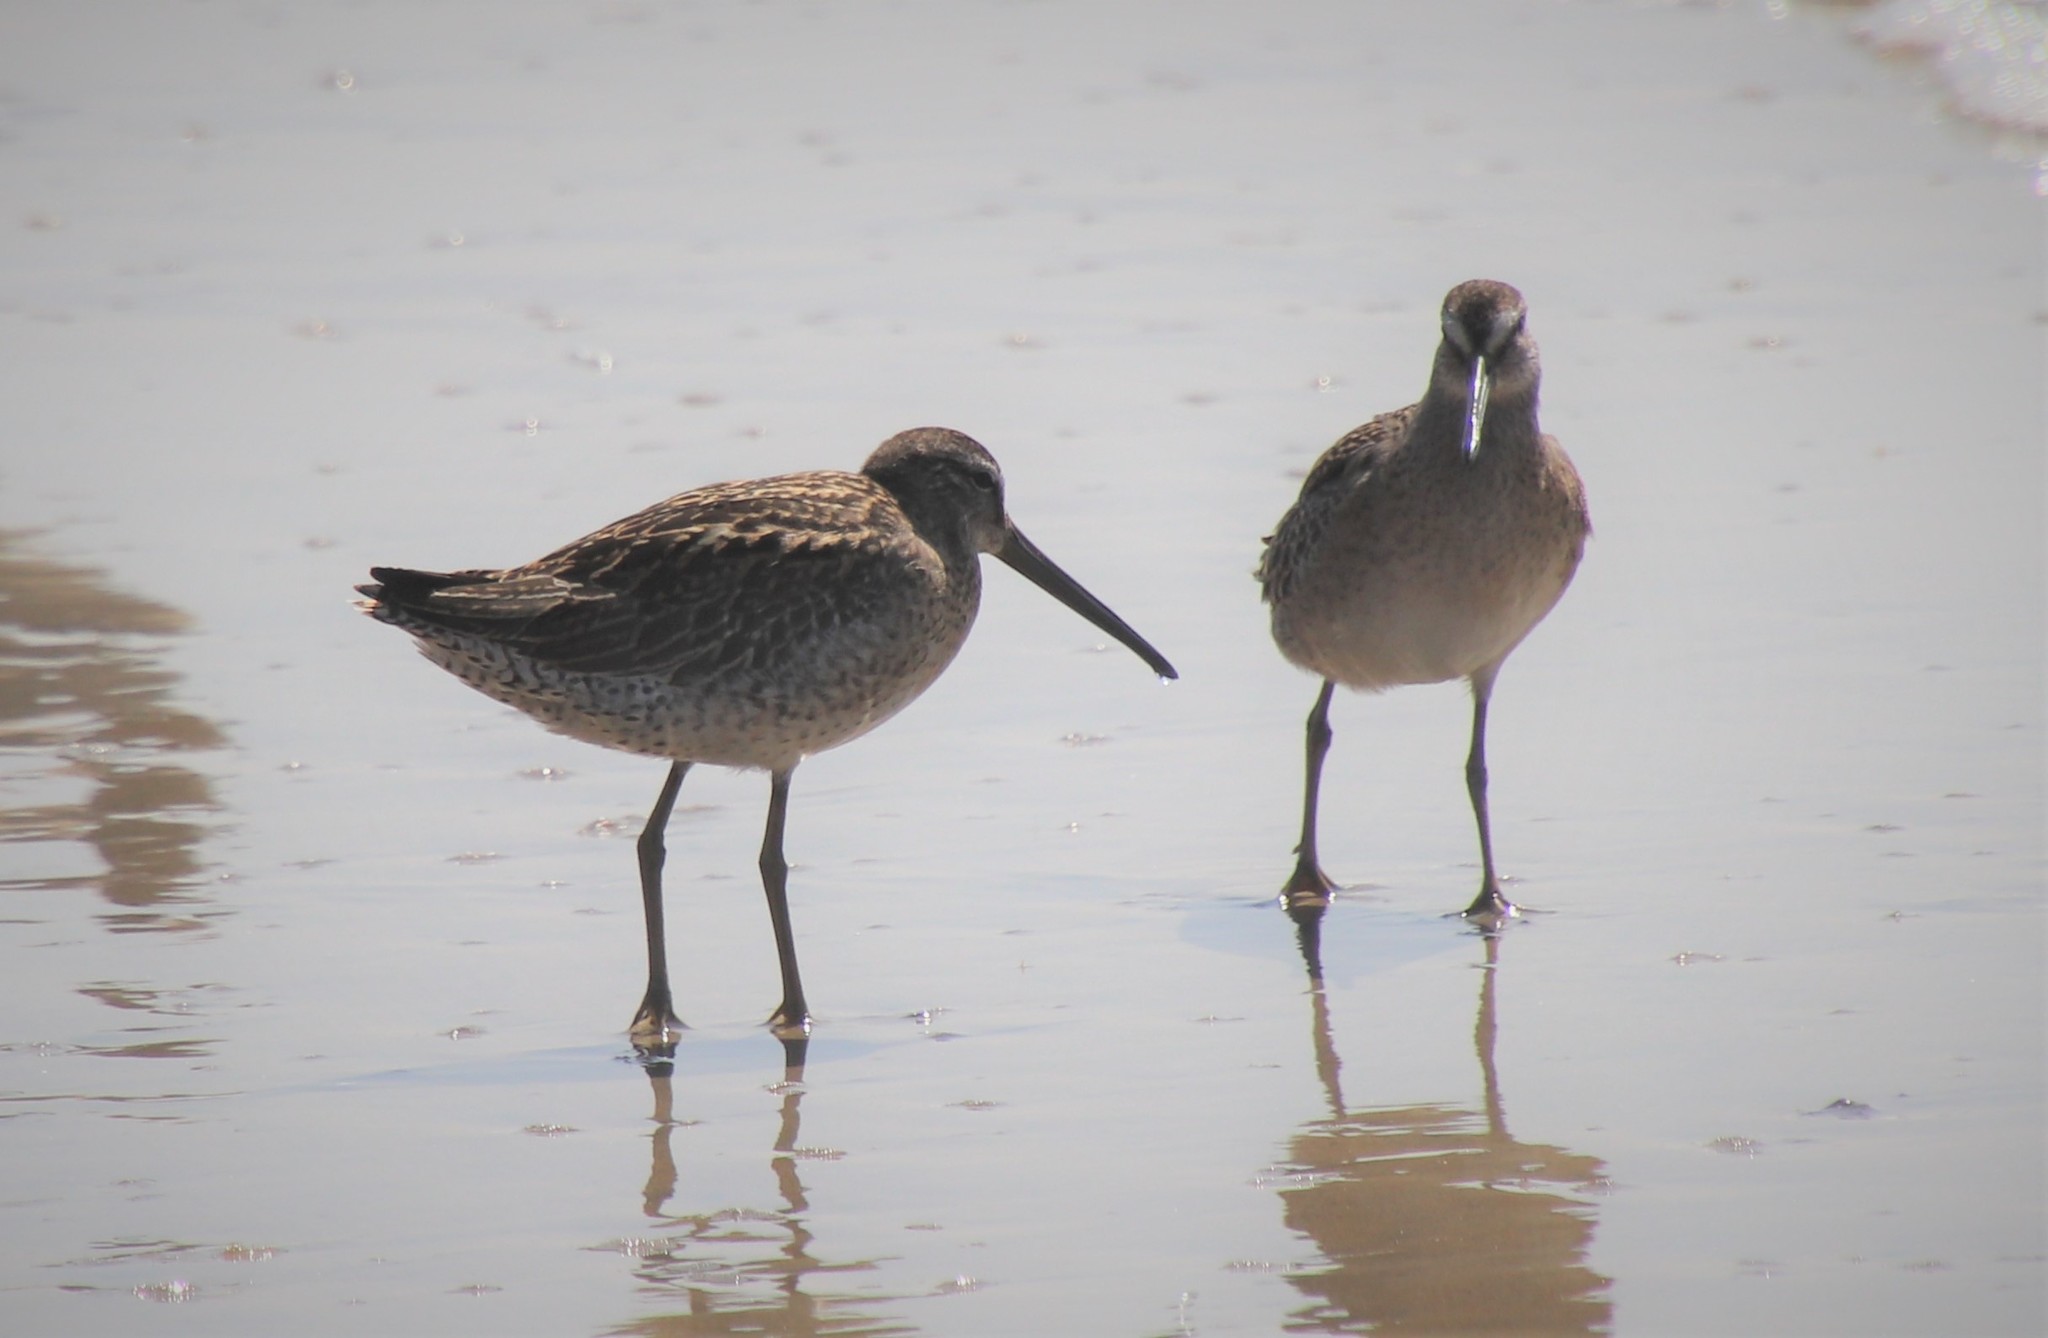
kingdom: Animalia
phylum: Chordata
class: Aves
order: Charadriiformes
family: Scolopacidae
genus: Limnodromus
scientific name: Limnodromus griseus
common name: Short-billed dowitcher
